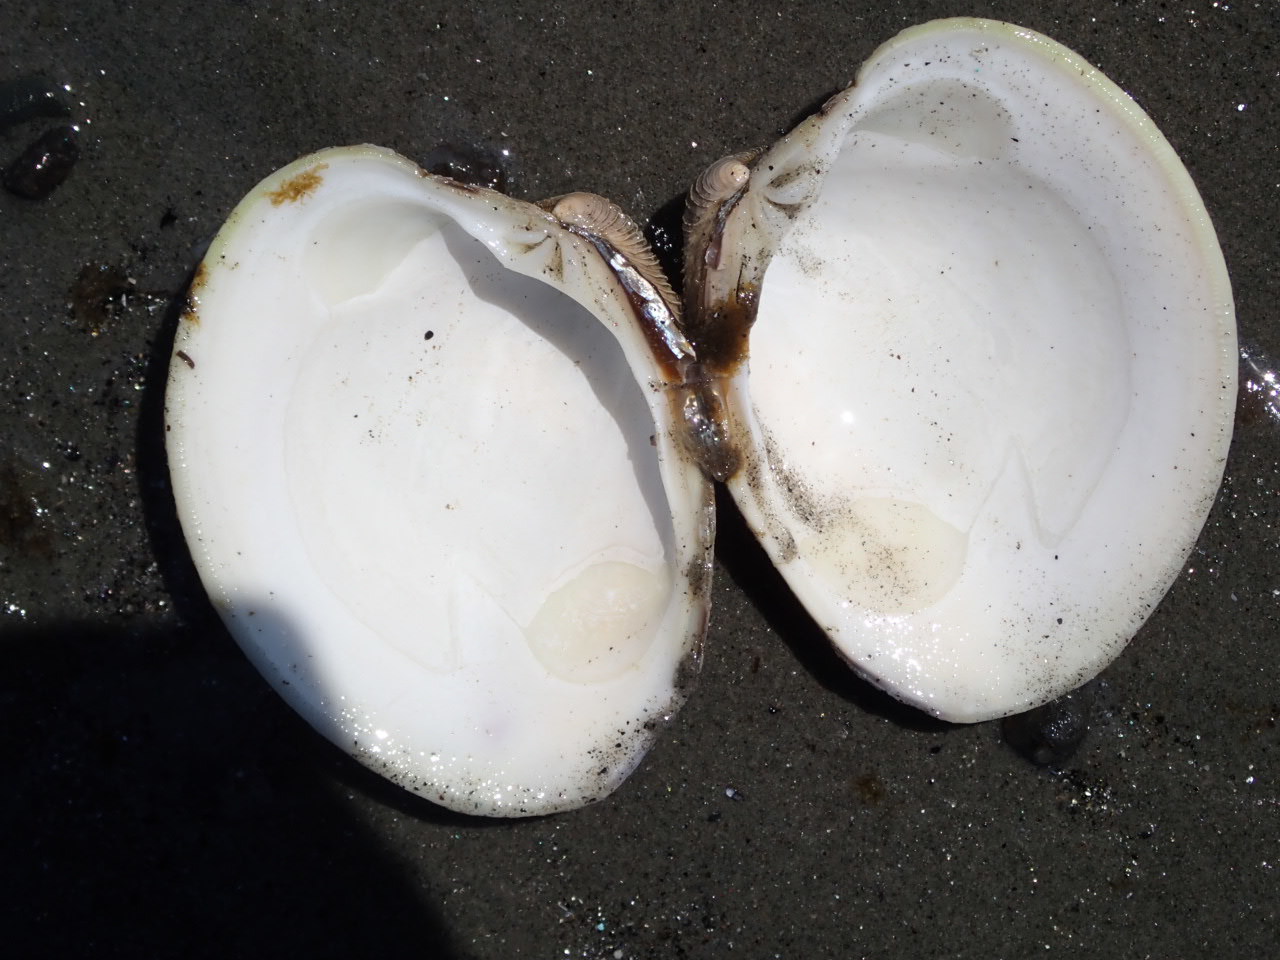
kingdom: Animalia
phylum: Mollusca
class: Bivalvia
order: Venerida
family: Veneridae
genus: Mercenaria
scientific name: Mercenaria mercenaria
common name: American hard-shelled clam
